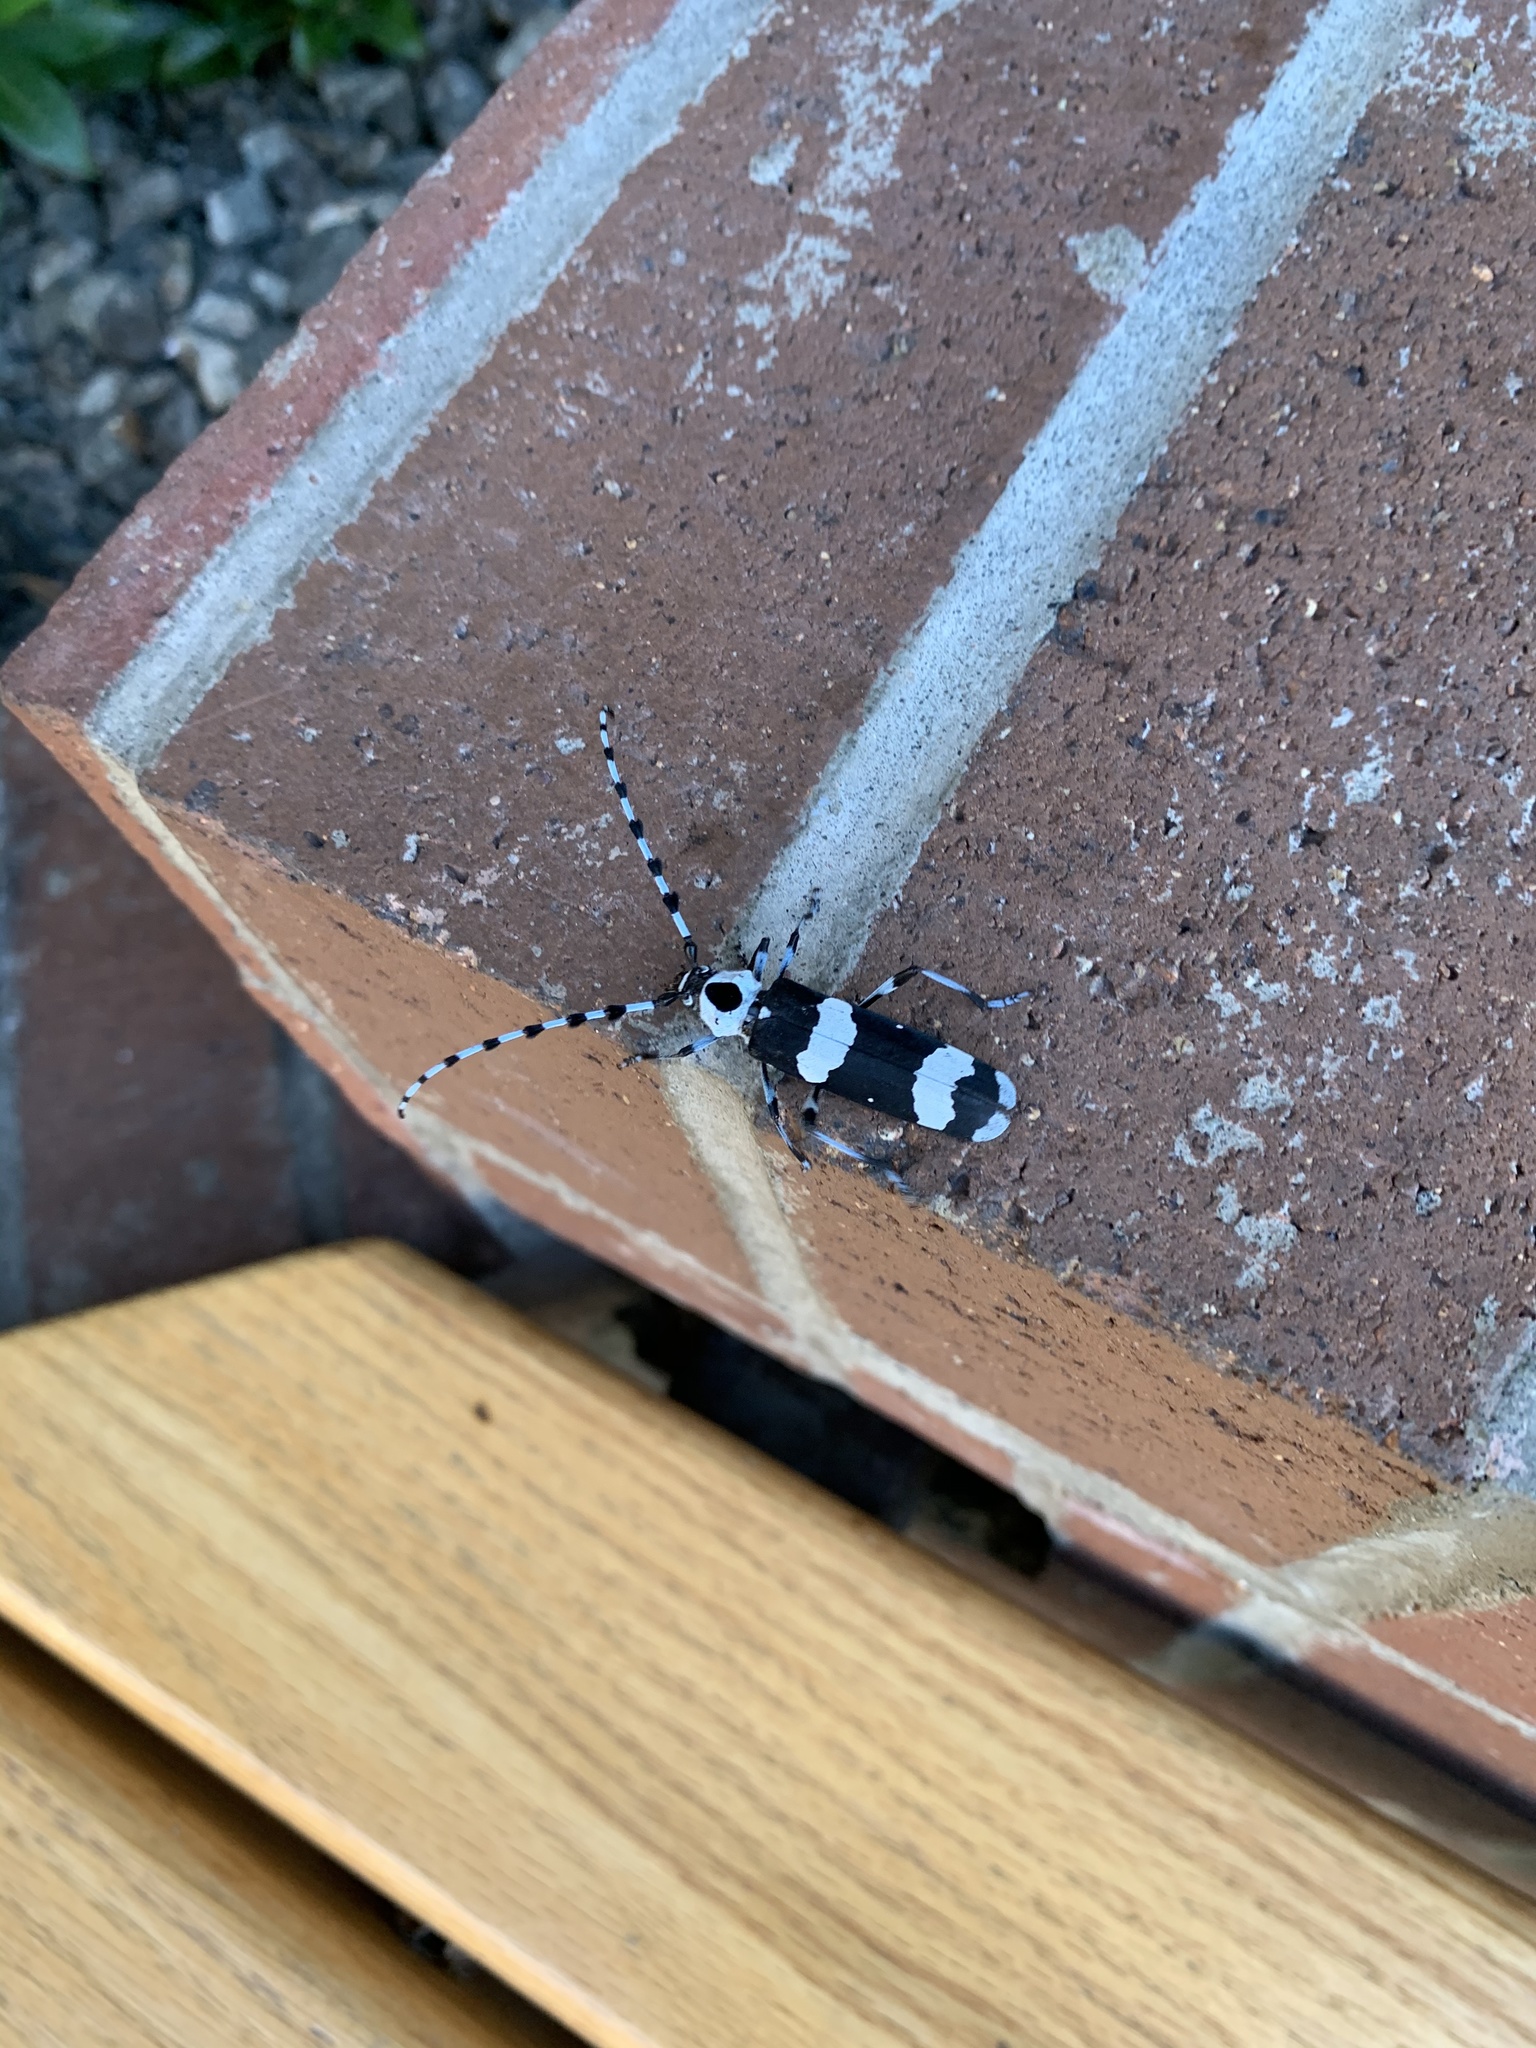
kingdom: Animalia
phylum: Arthropoda
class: Insecta
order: Coleoptera
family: Cerambycidae
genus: Rosalia
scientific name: Rosalia funebris
